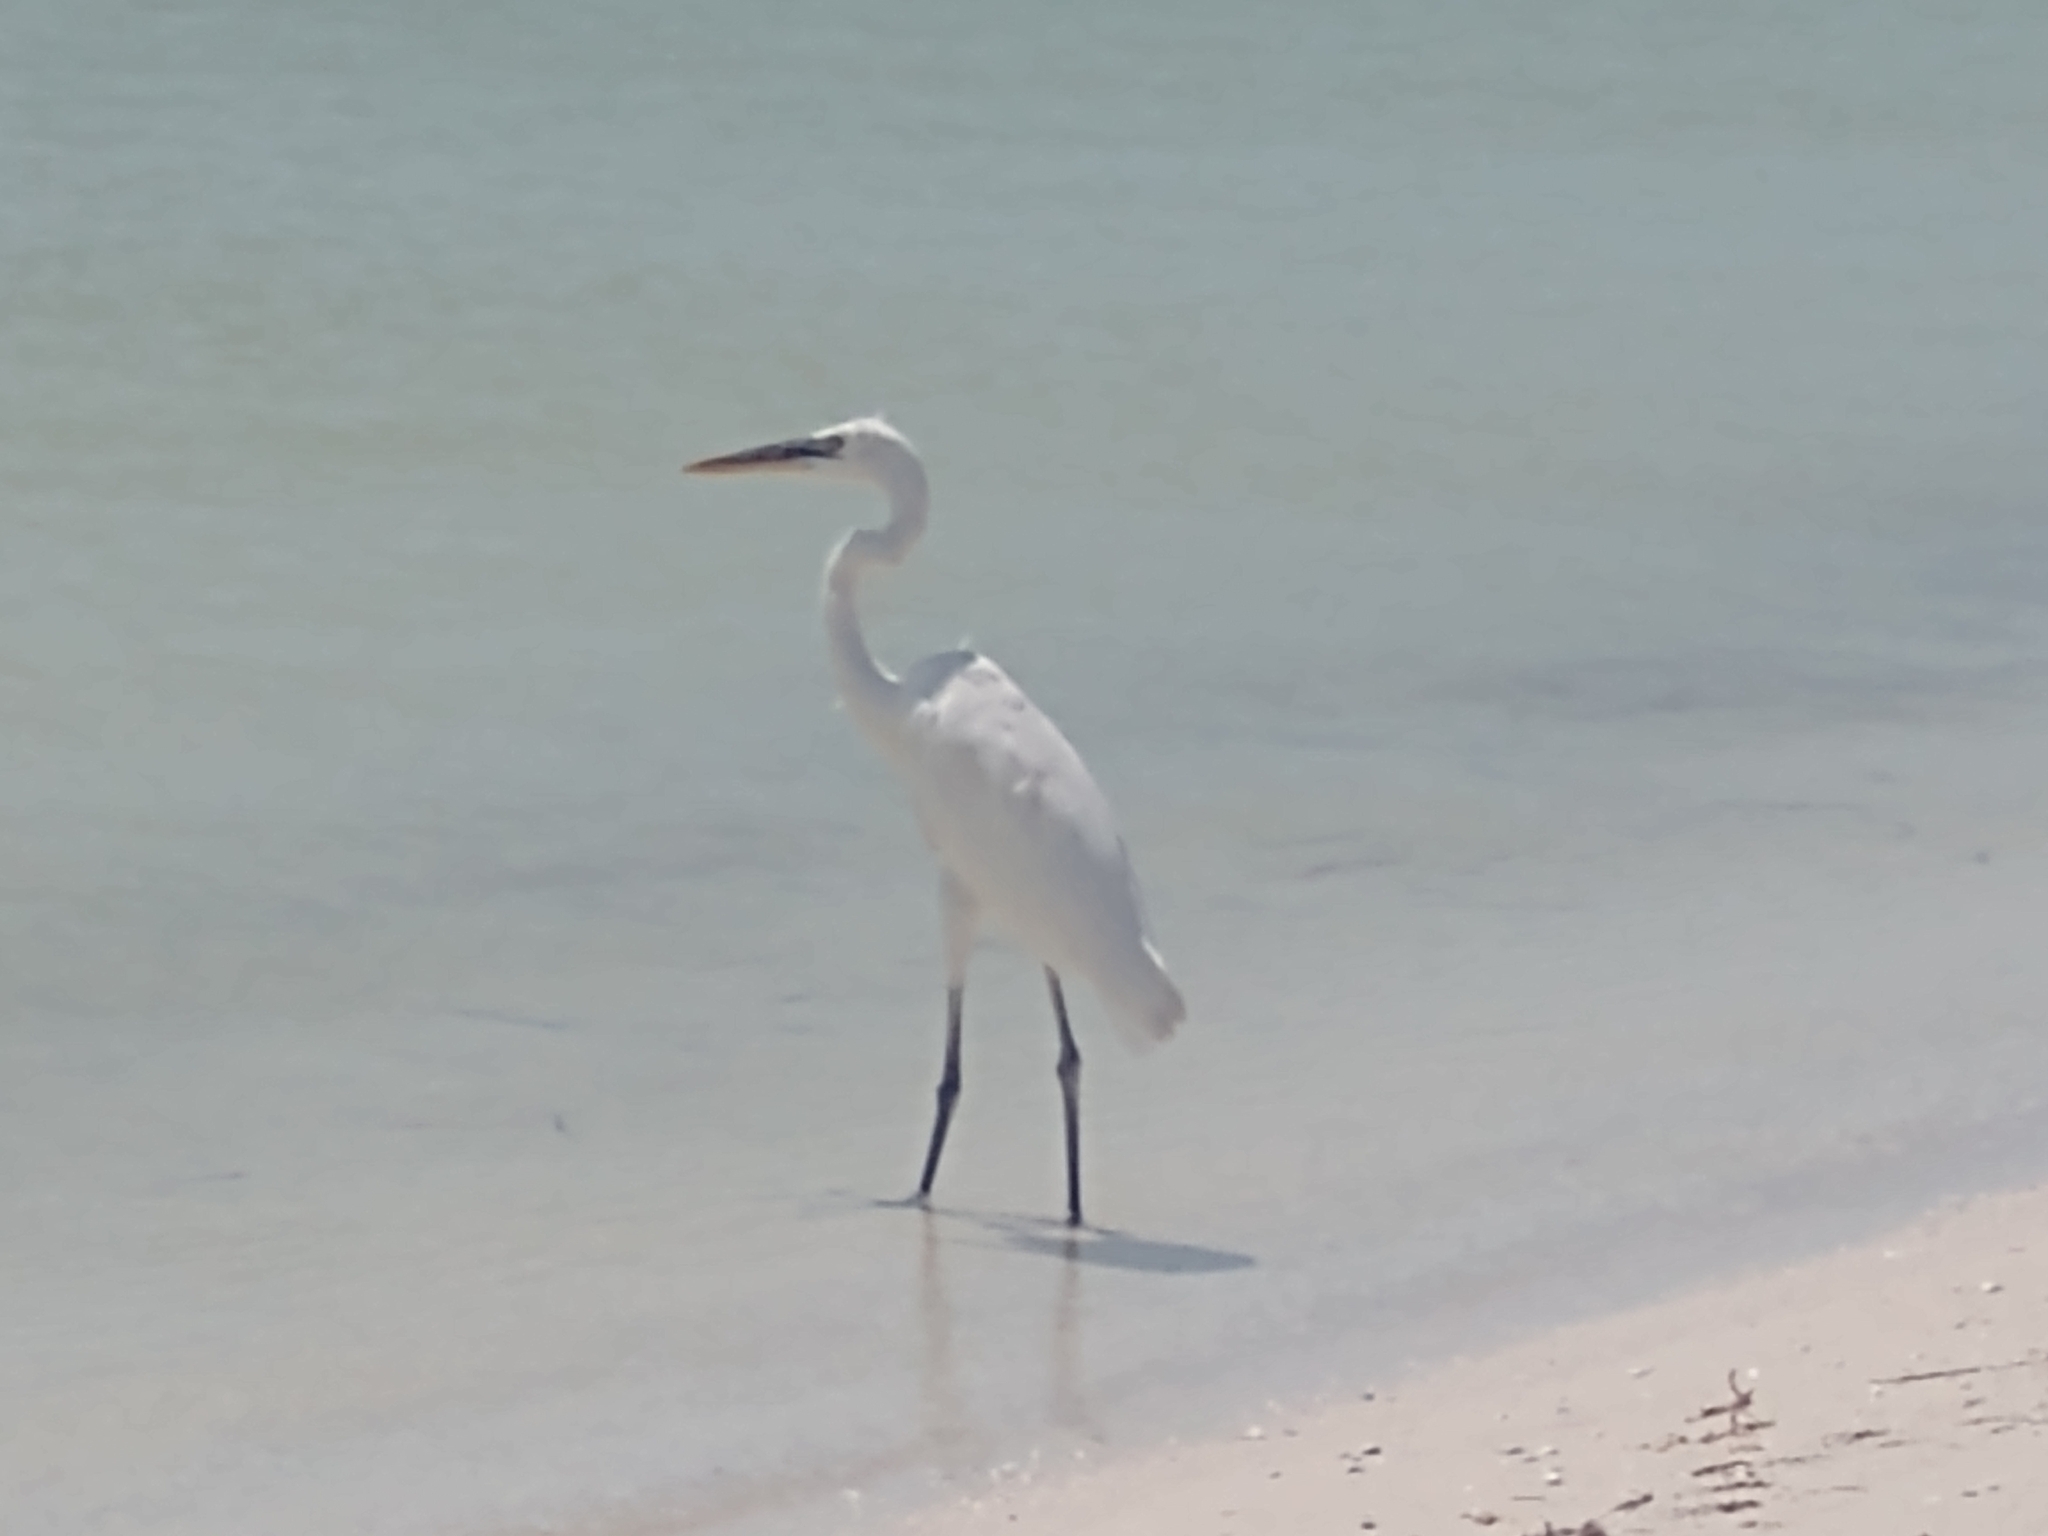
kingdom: Animalia
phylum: Chordata
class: Aves
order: Pelecaniformes
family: Ardeidae
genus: Ardea
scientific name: Ardea herodias
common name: Great blue heron
